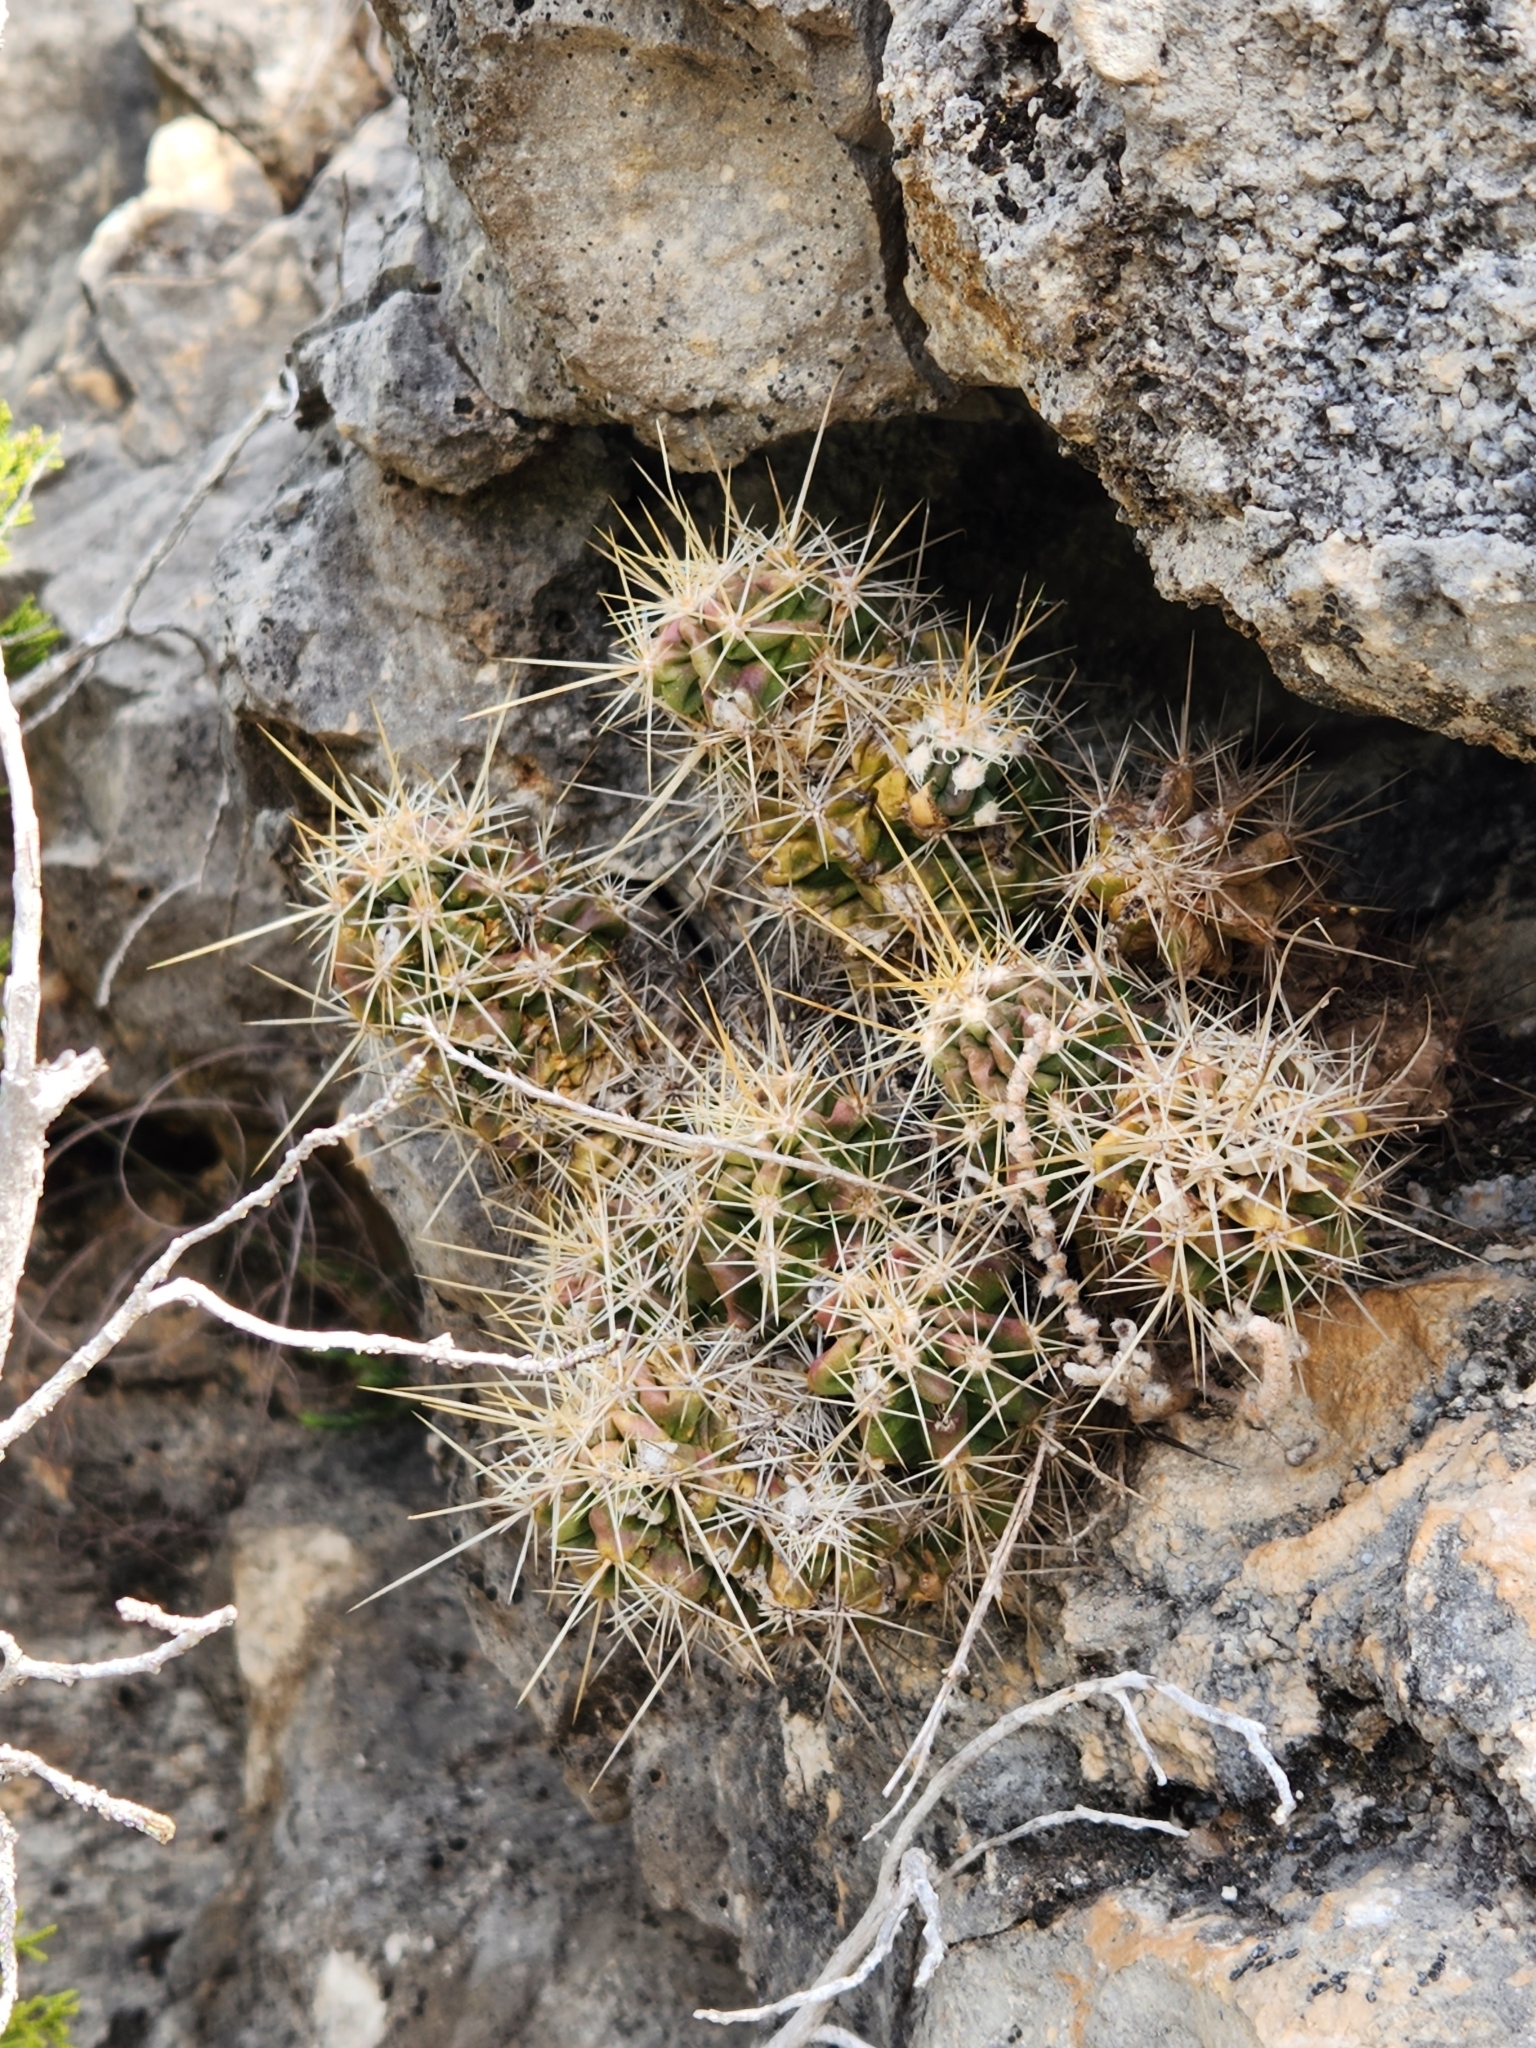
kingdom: Plantae
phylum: Tracheophyta
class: Magnoliopsida
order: Caryophyllales
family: Cactaceae
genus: Echinocereus
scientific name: Echinocereus enneacanthus
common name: Pitaya
